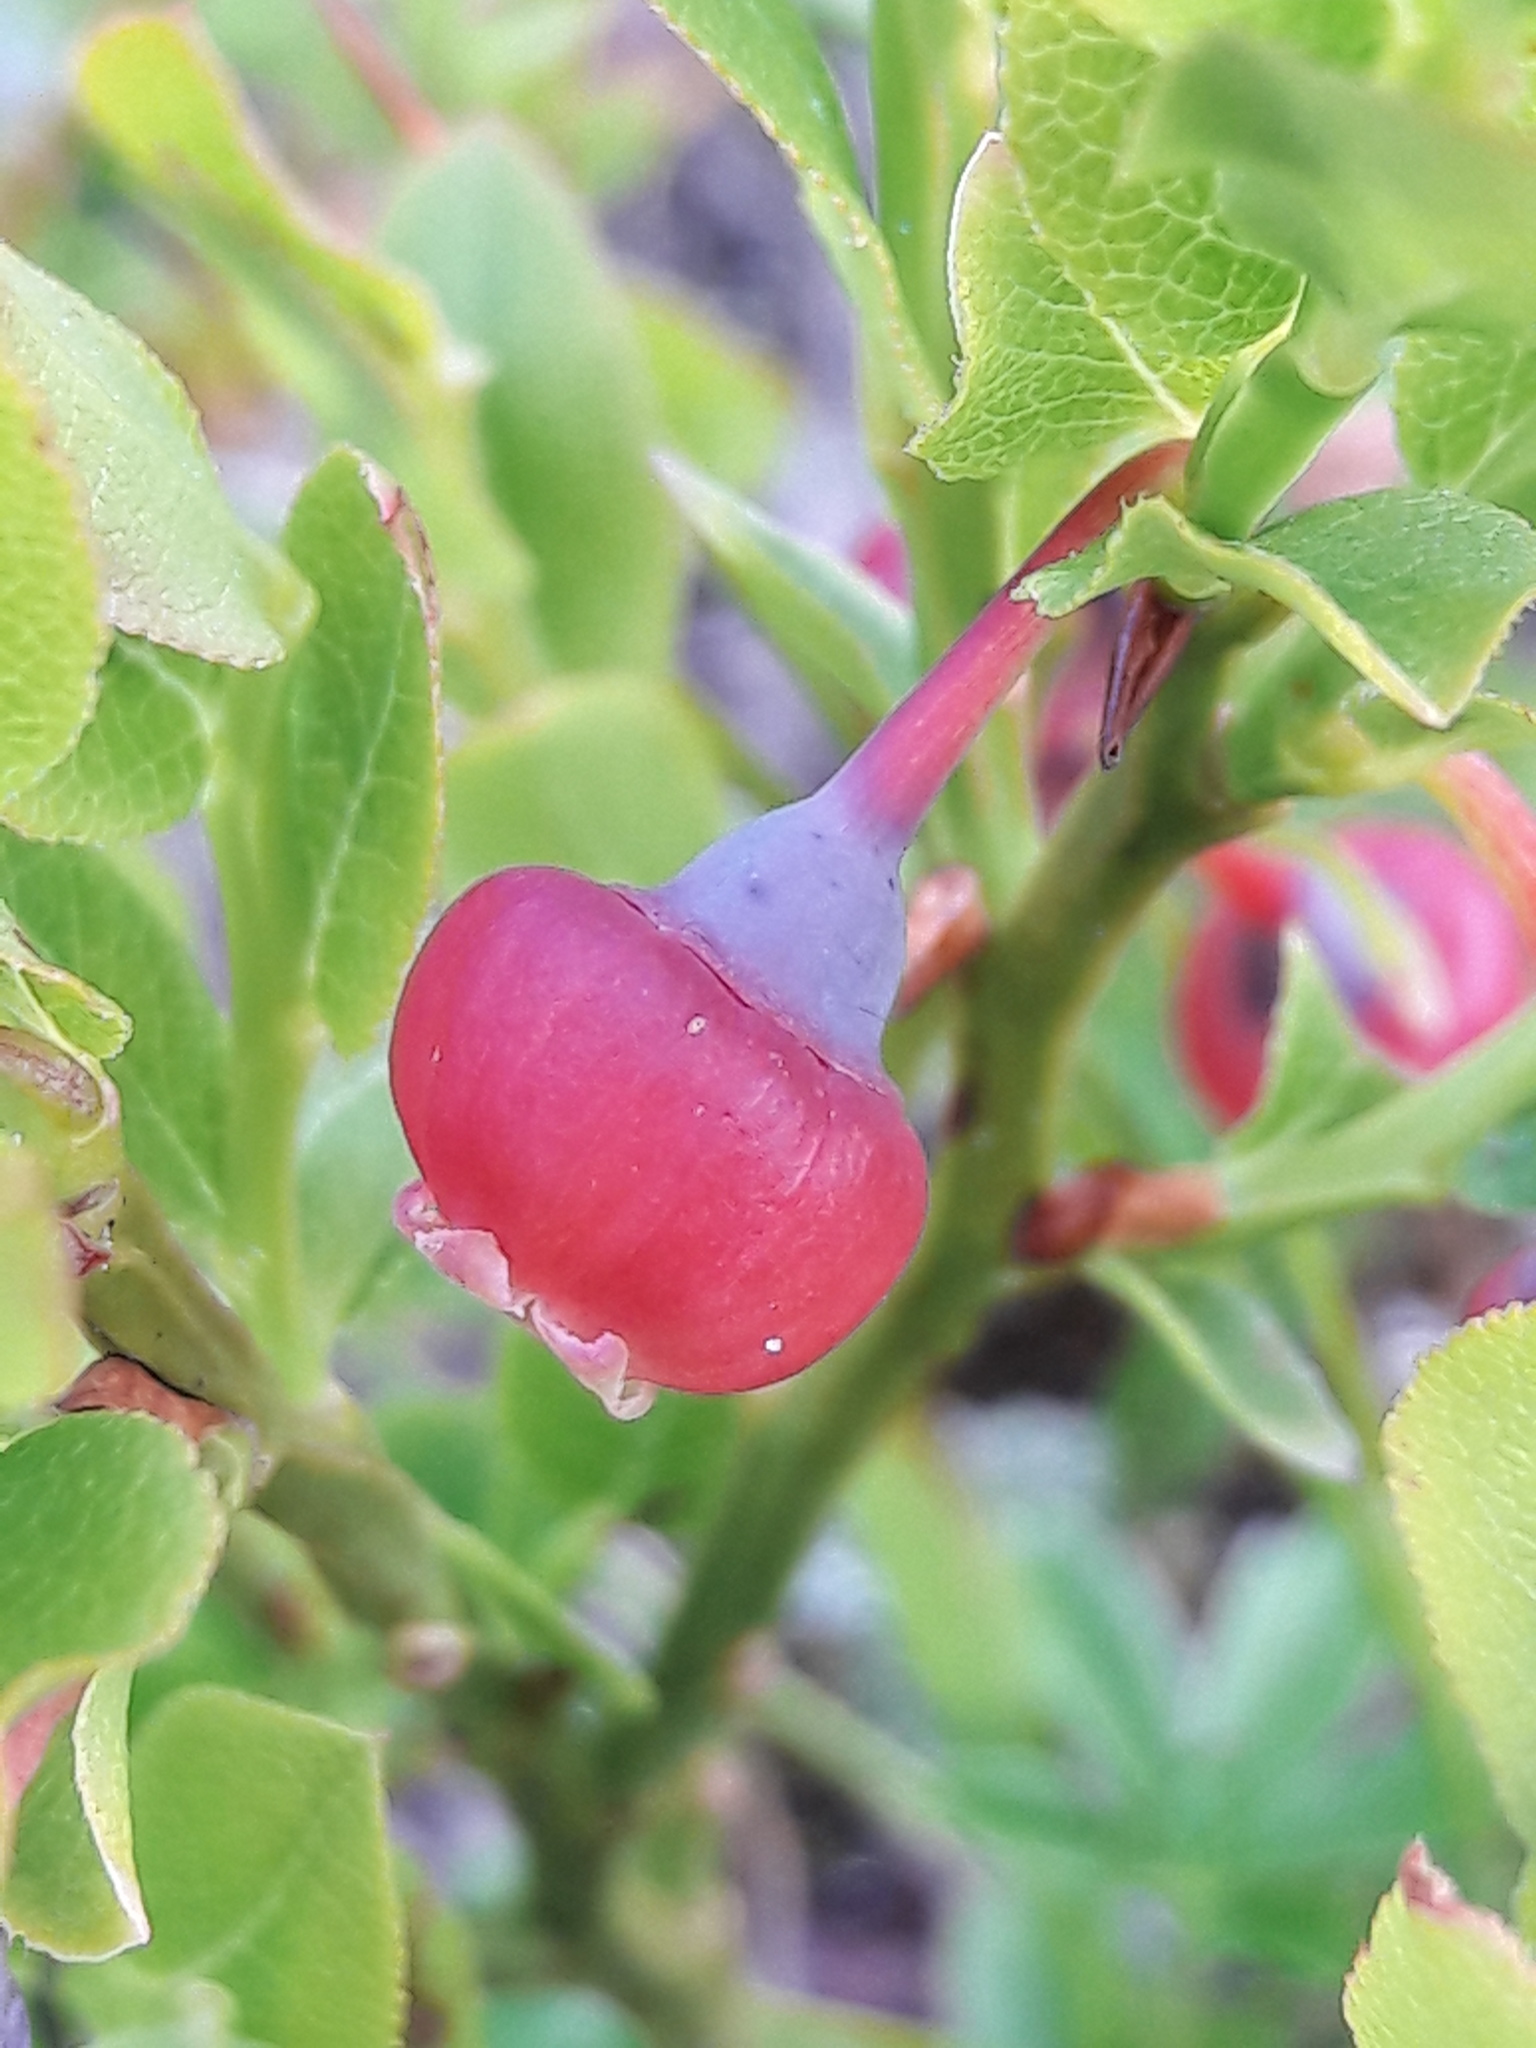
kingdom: Plantae
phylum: Tracheophyta
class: Magnoliopsida
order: Ericales
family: Ericaceae
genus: Vaccinium
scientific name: Vaccinium myrtillus
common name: Bilberry
